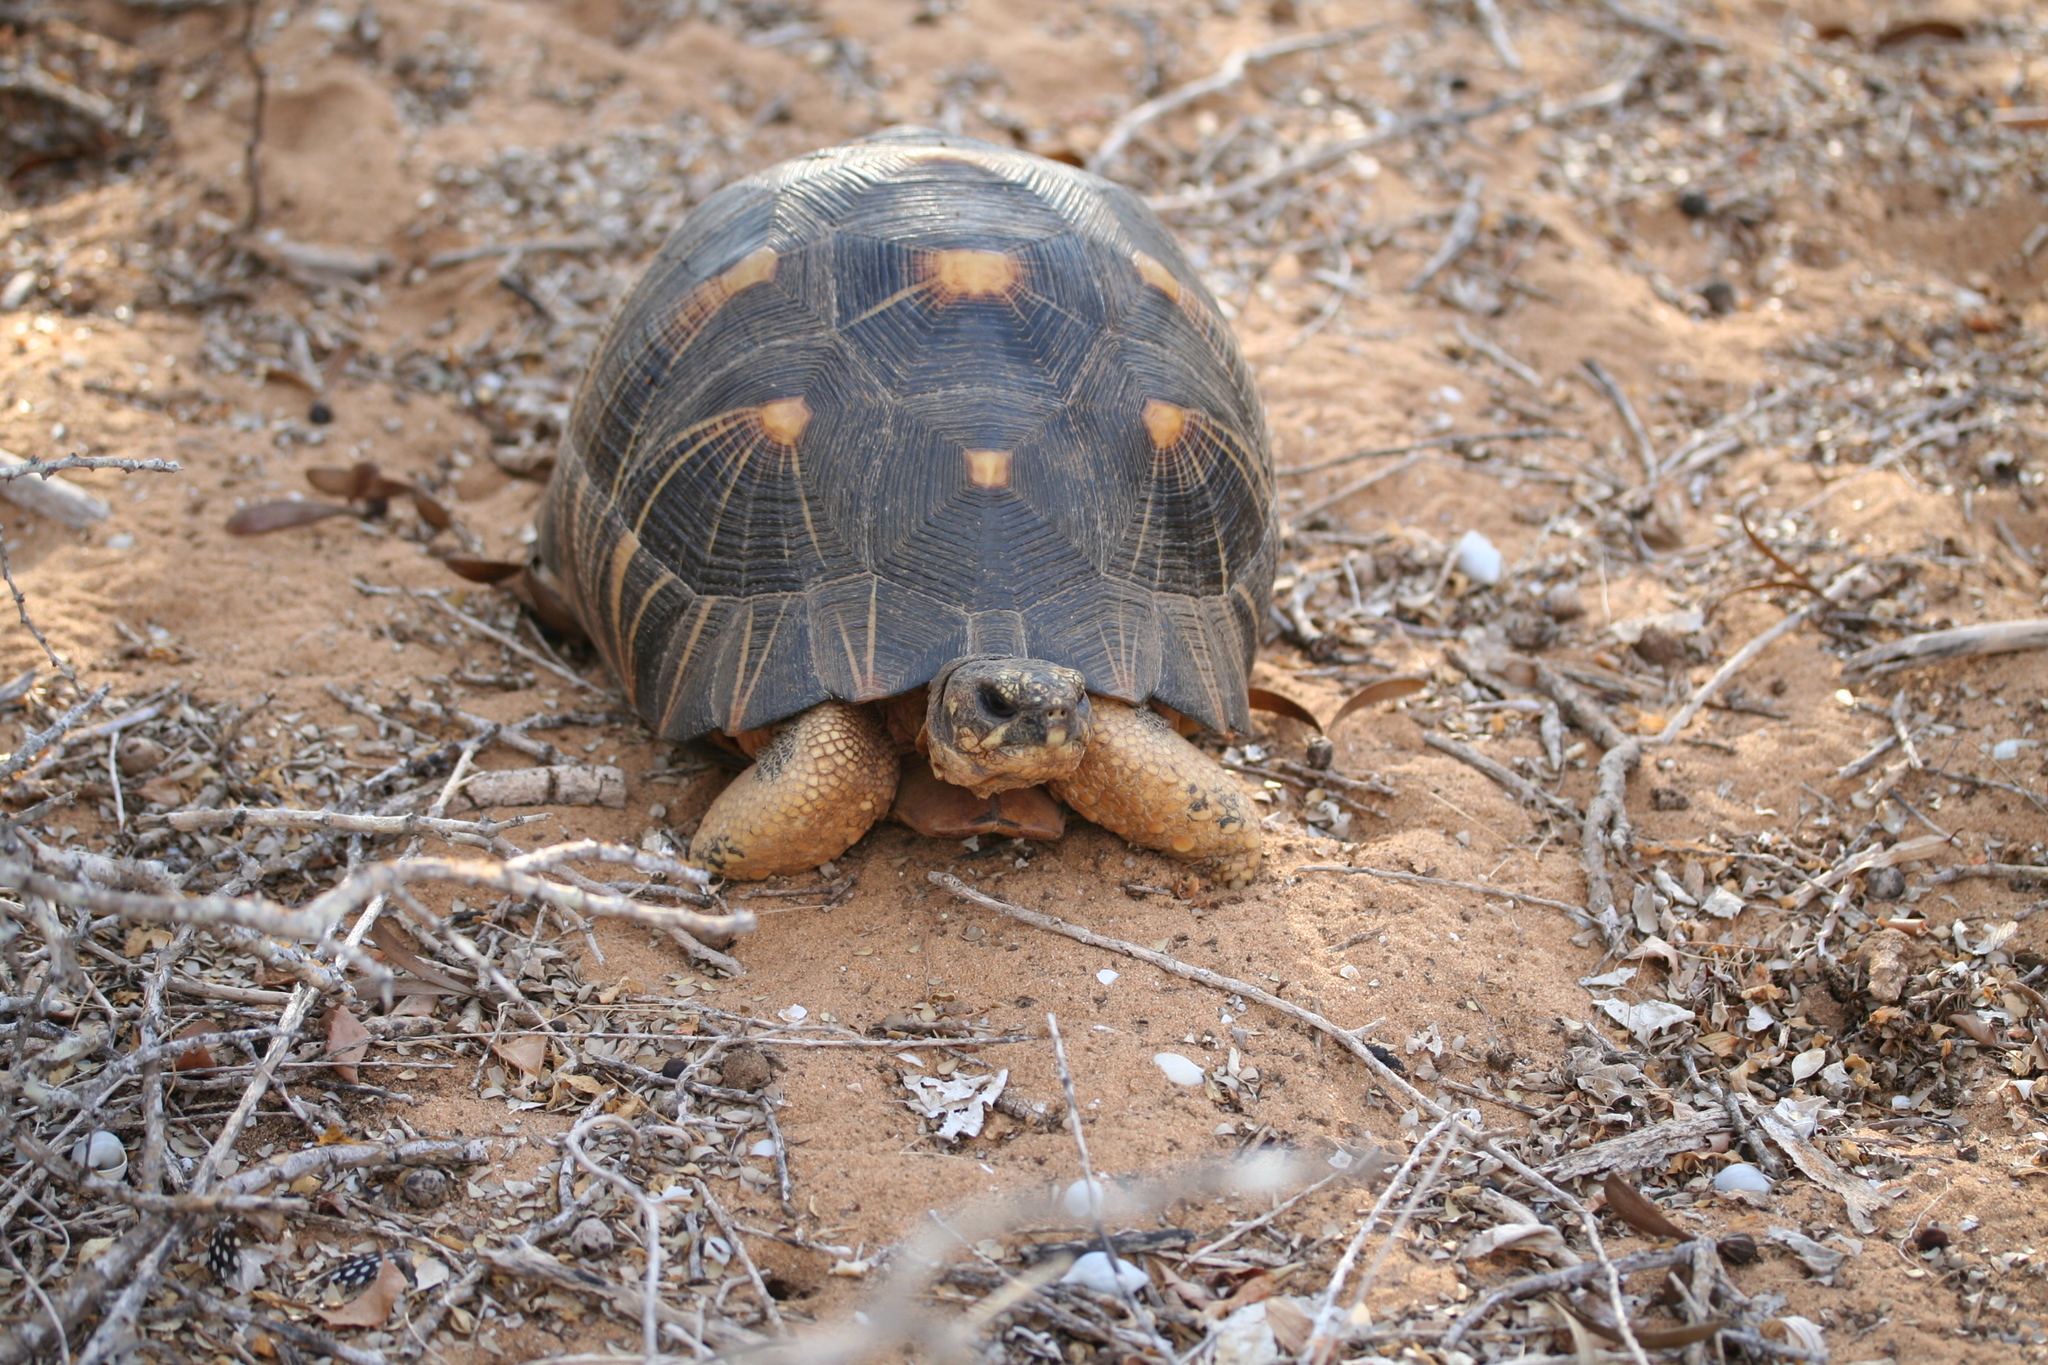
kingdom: Animalia
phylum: Chordata
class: Testudines
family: Testudinidae
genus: Astrochelys
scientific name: Astrochelys radiata
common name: Radiated tortoise
